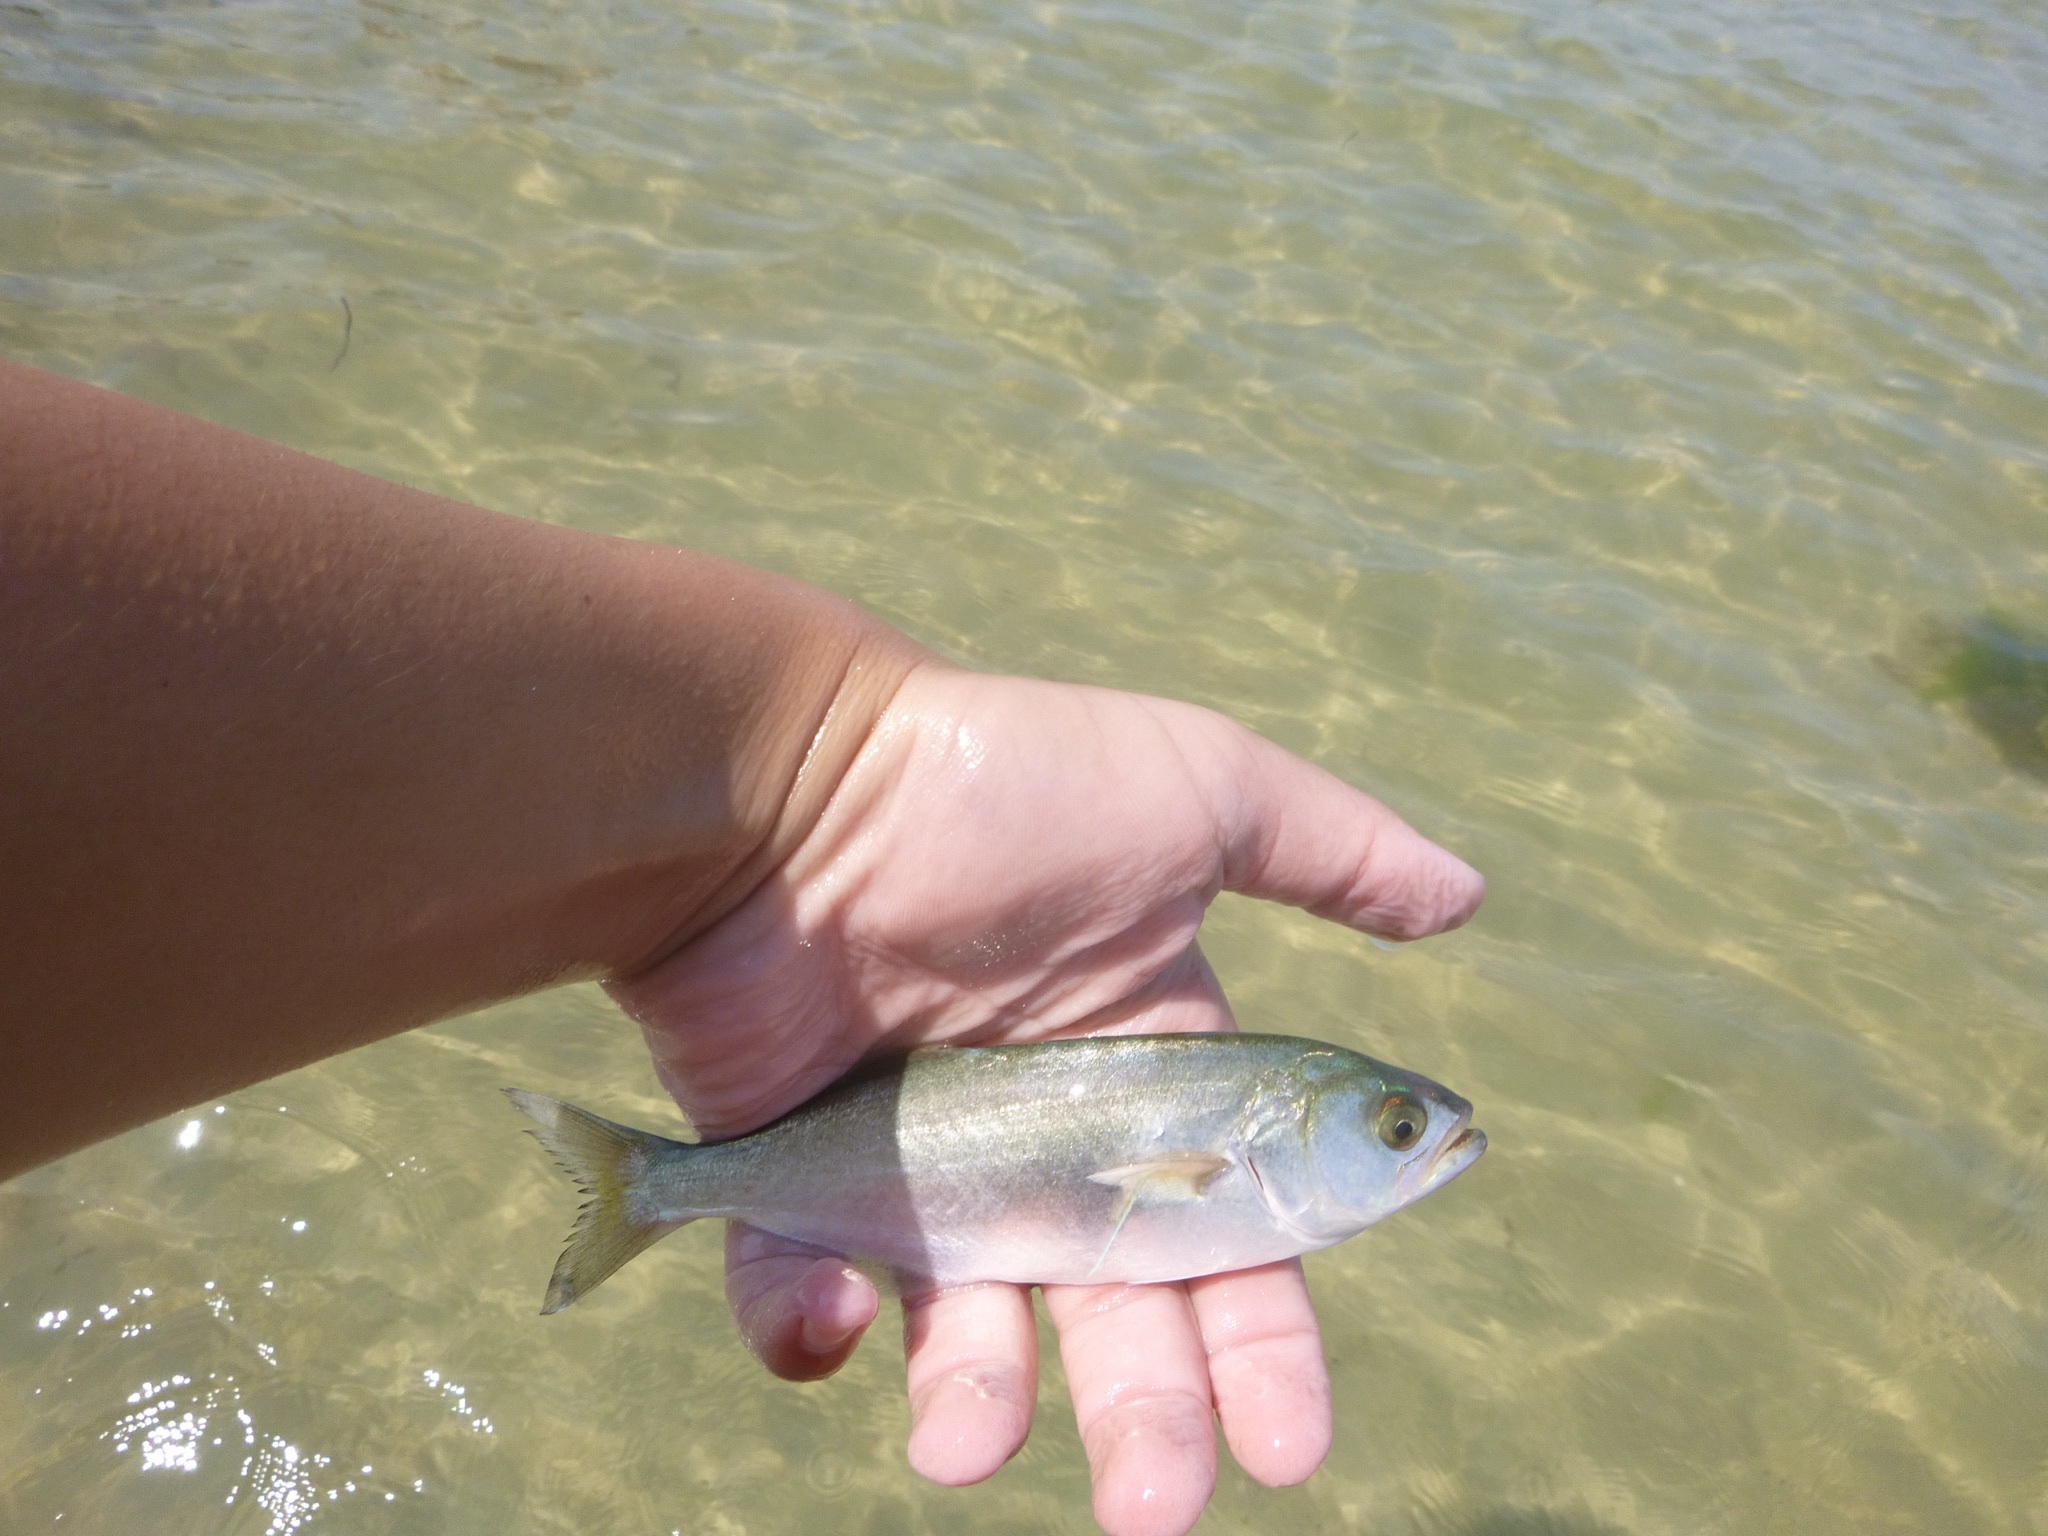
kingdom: Animalia
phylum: Chordata
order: Perciformes
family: Pomatomidae
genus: Pomatomus
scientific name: Pomatomus saltatrix
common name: Bluefish
